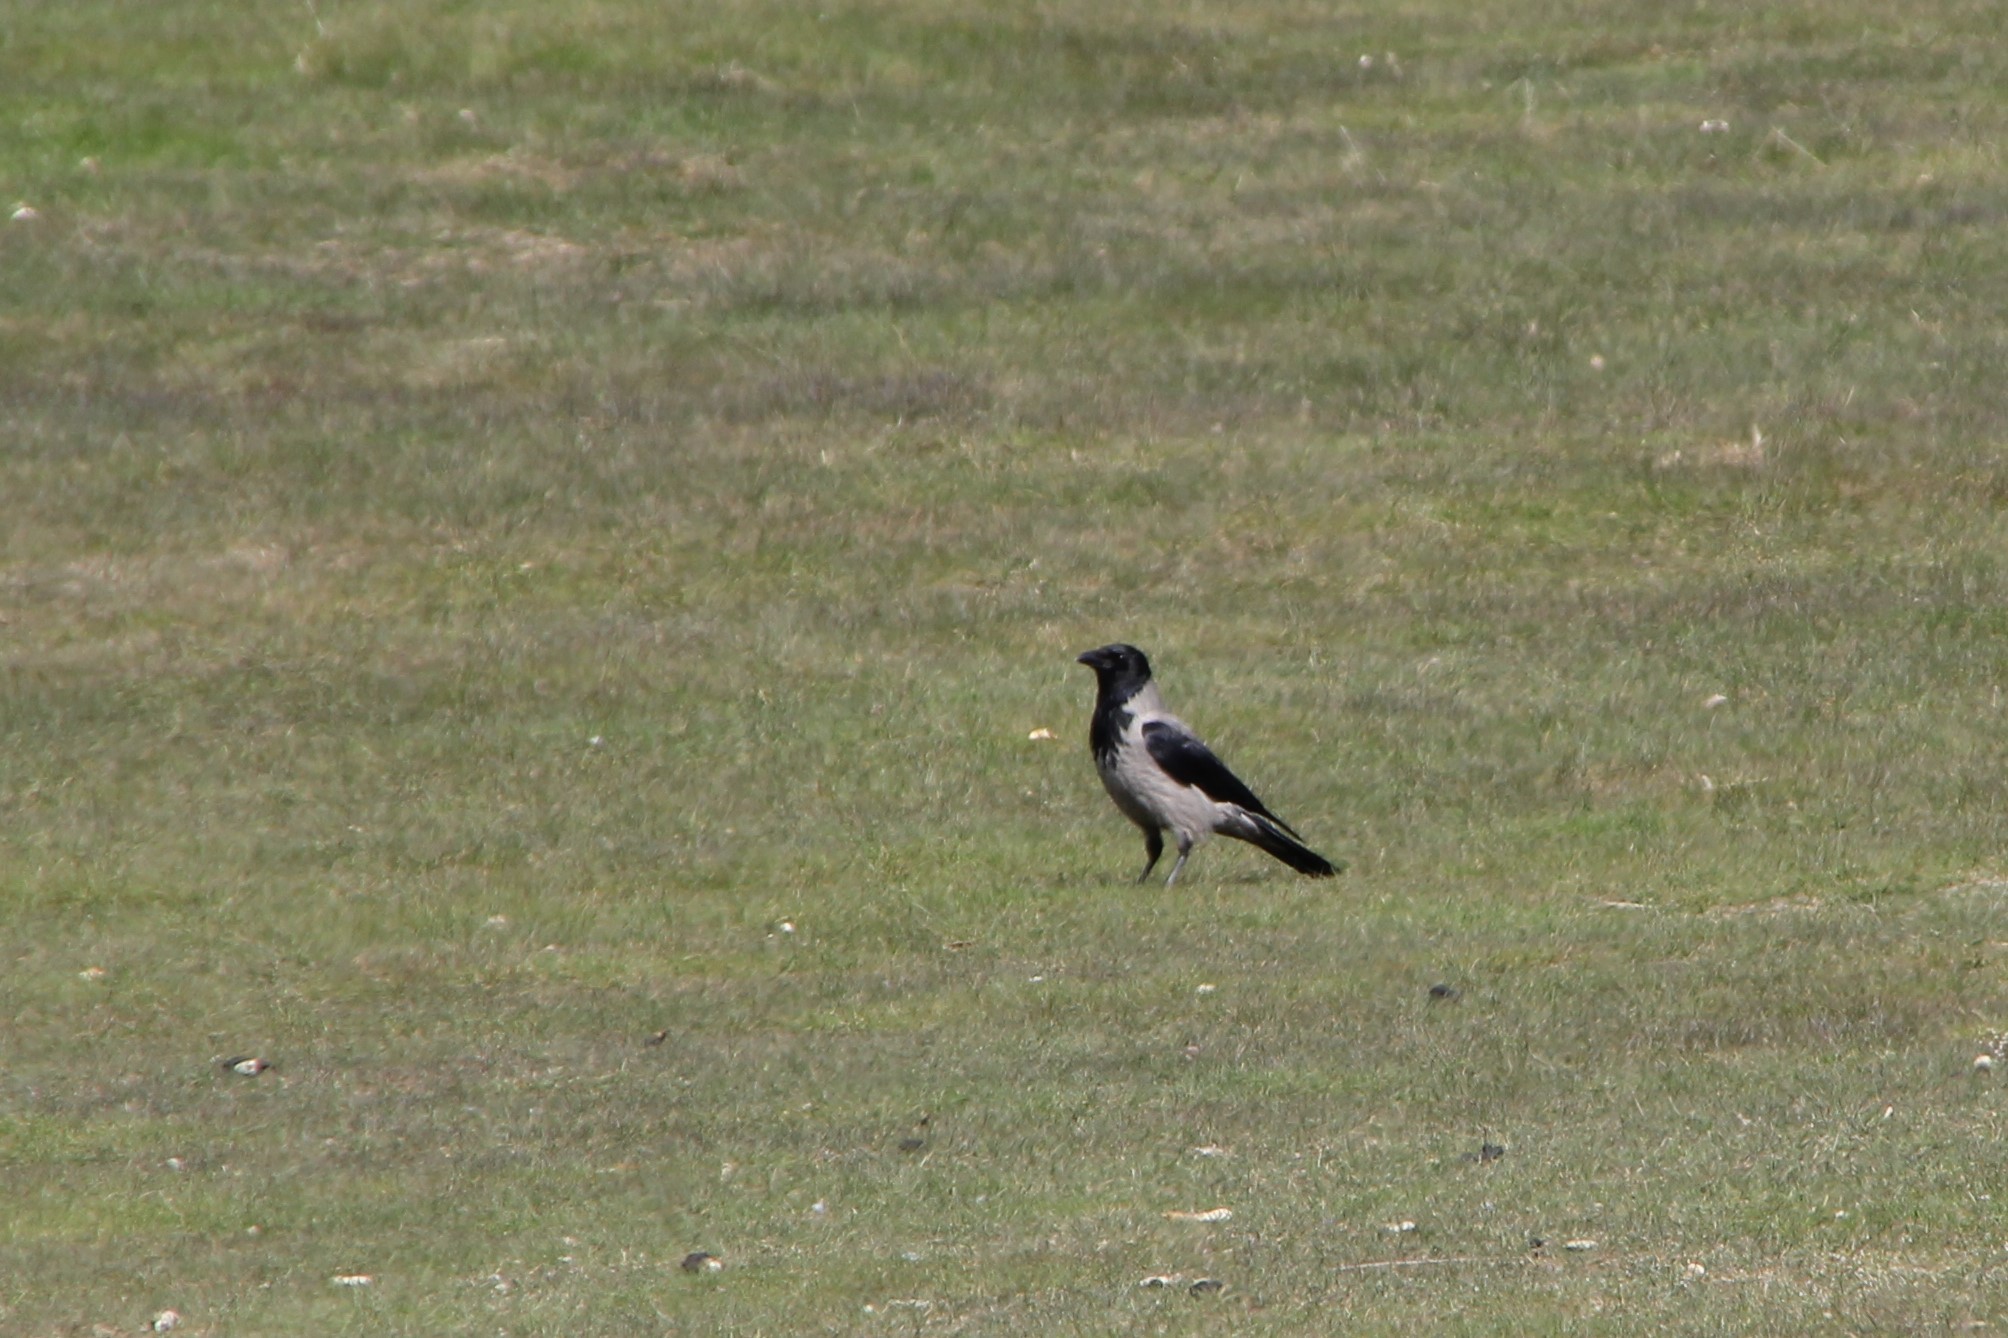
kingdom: Animalia
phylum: Chordata
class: Aves
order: Passeriformes
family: Corvidae
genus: Corvus
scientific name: Corvus cornix
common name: Hooded crow
